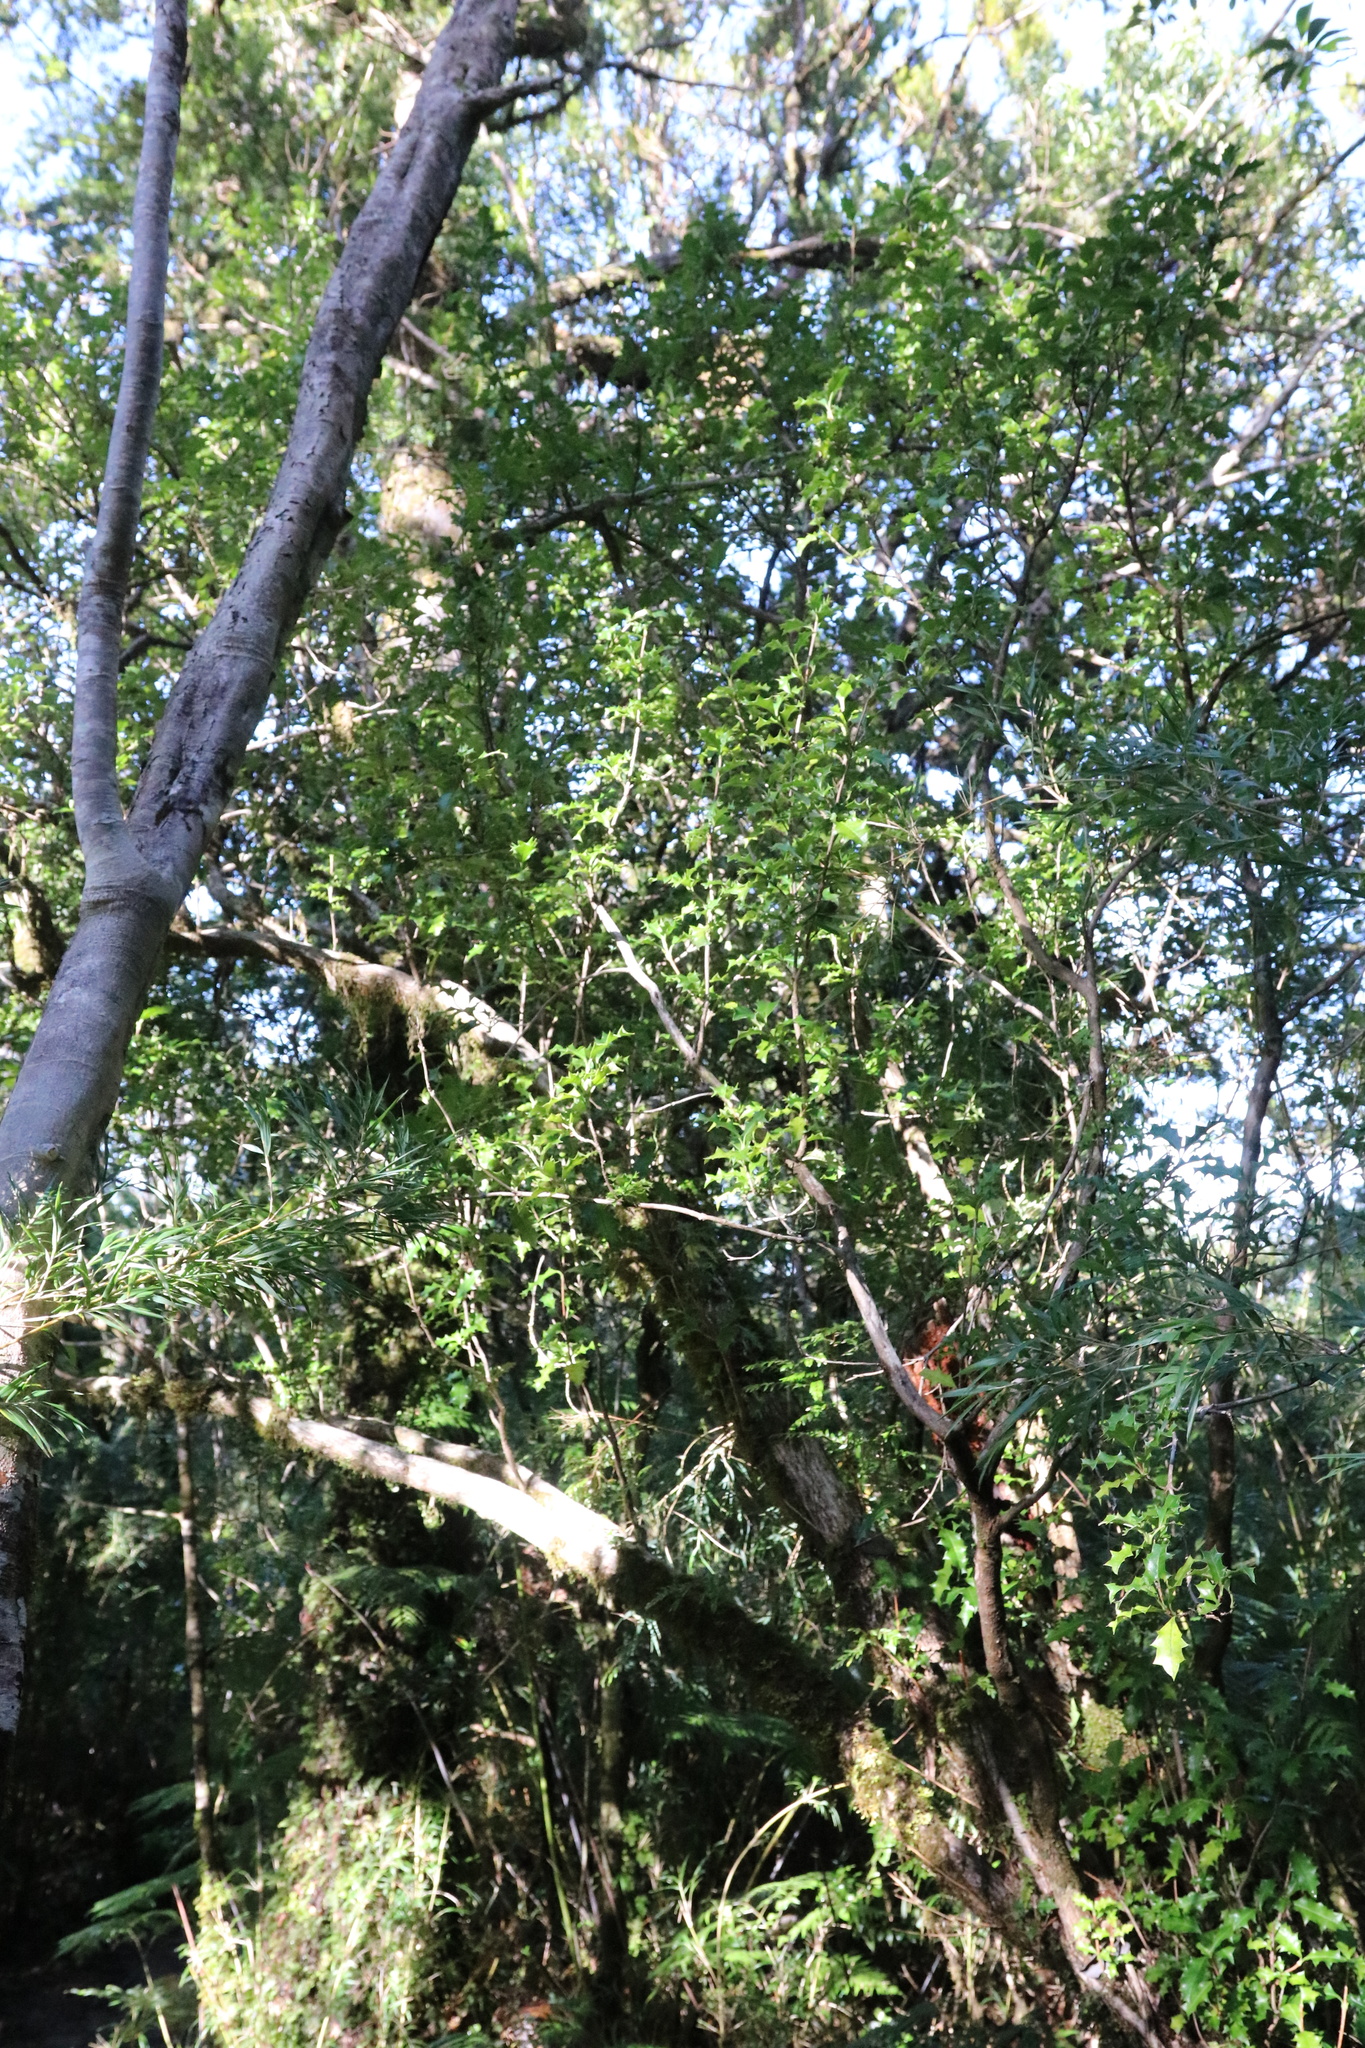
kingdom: Plantae
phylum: Tracheophyta
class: Magnoliopsida
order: Bruniales
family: Columelliaceae
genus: Desfontainia
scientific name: Desfontainia fulgens
